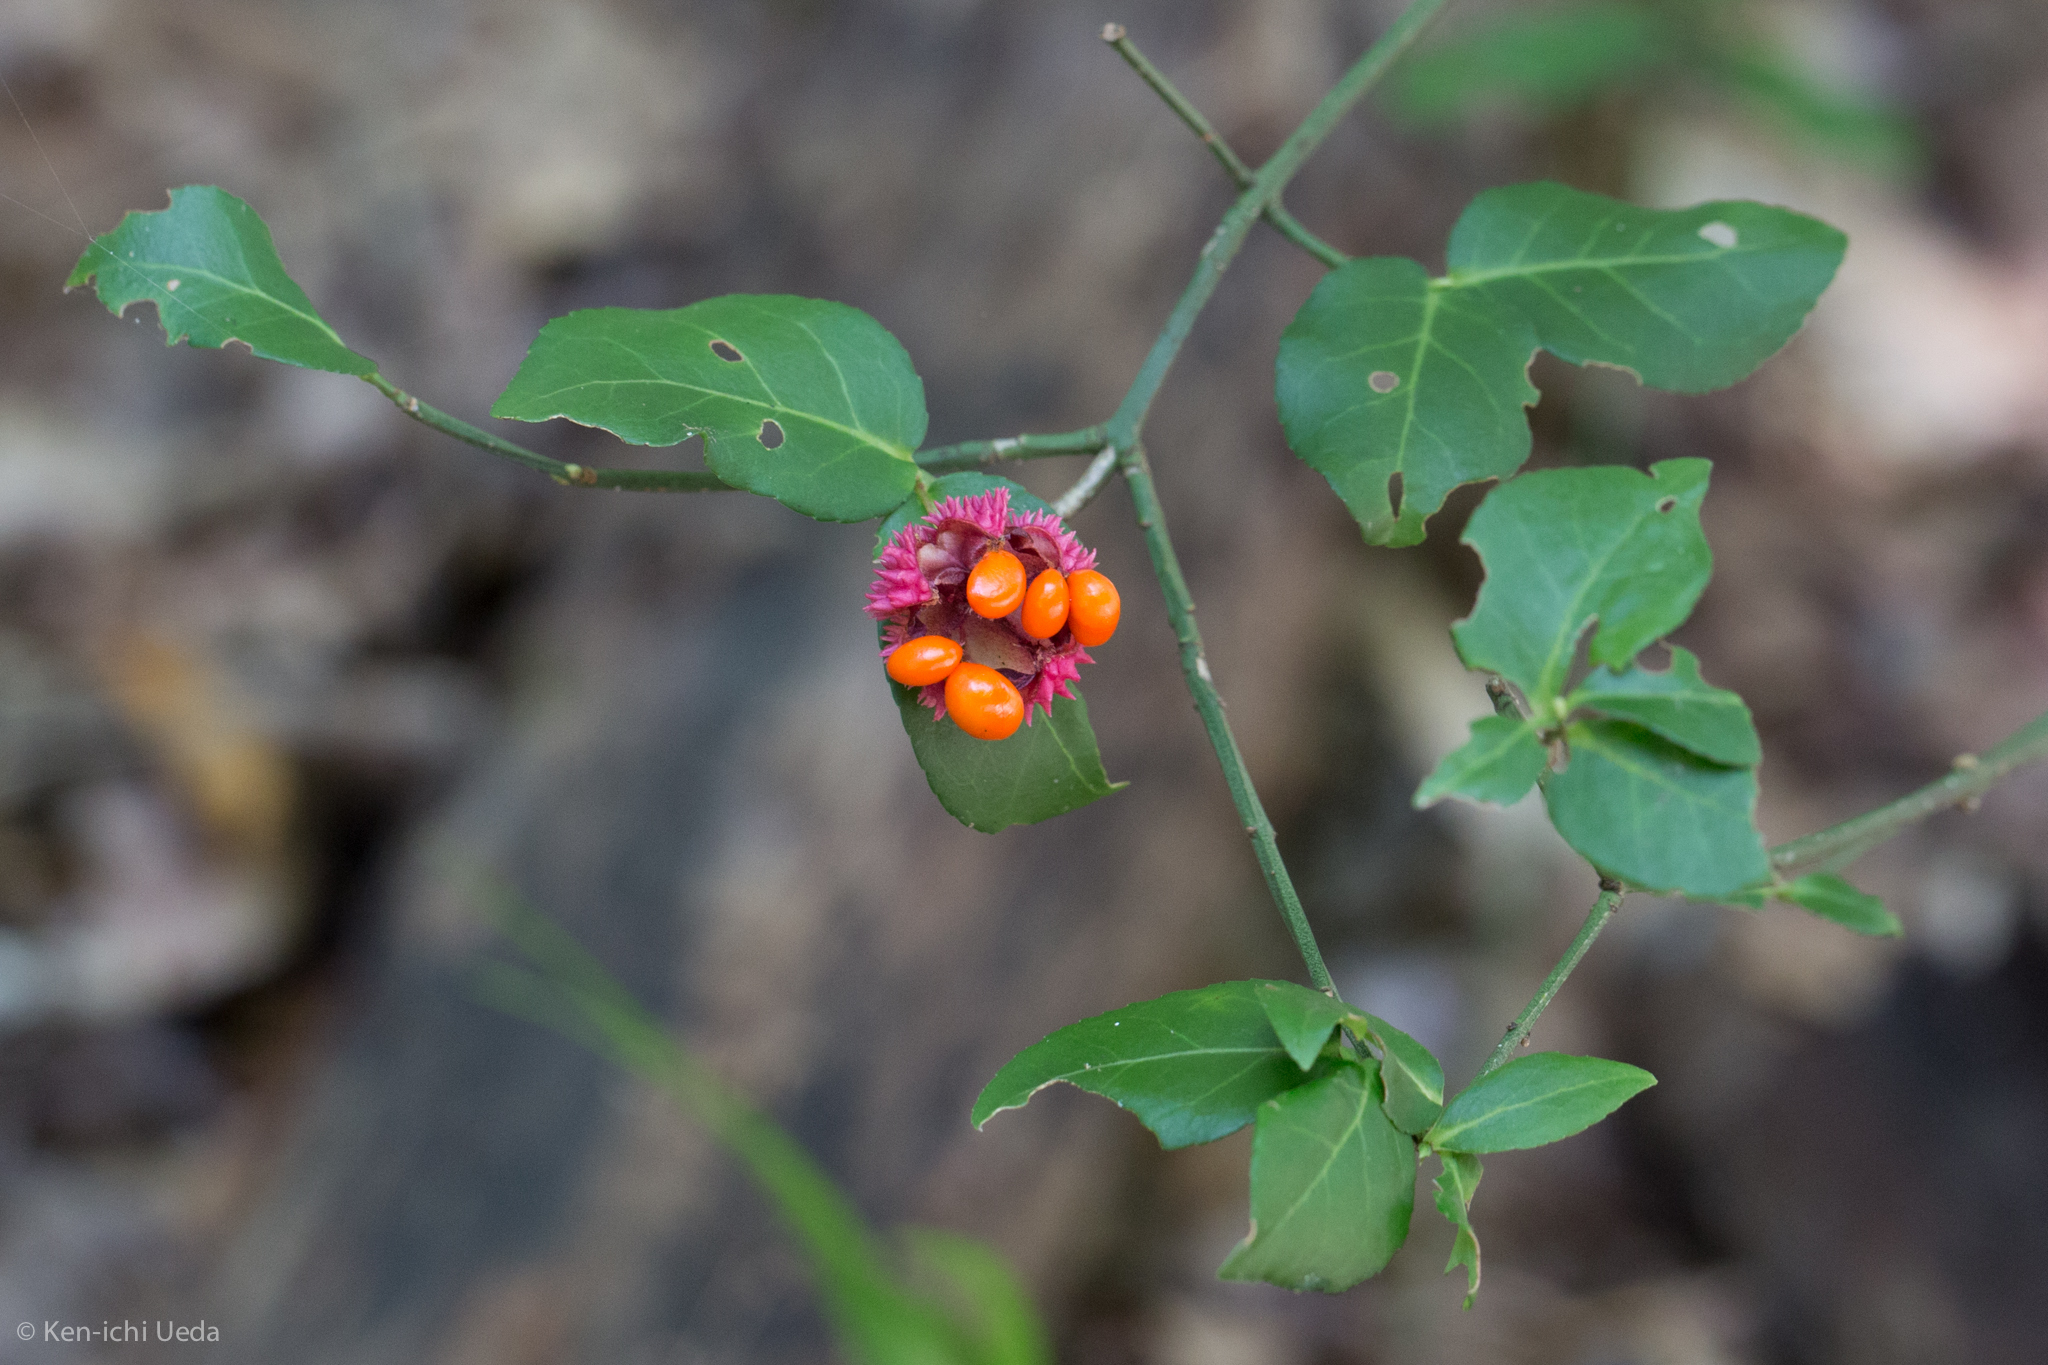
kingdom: Plantae
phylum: Tracheophyta
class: Magnoliopsida
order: Celastrales
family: Celastraceae
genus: Euonymus
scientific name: Euonymus americanus
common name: Bursting-heart
